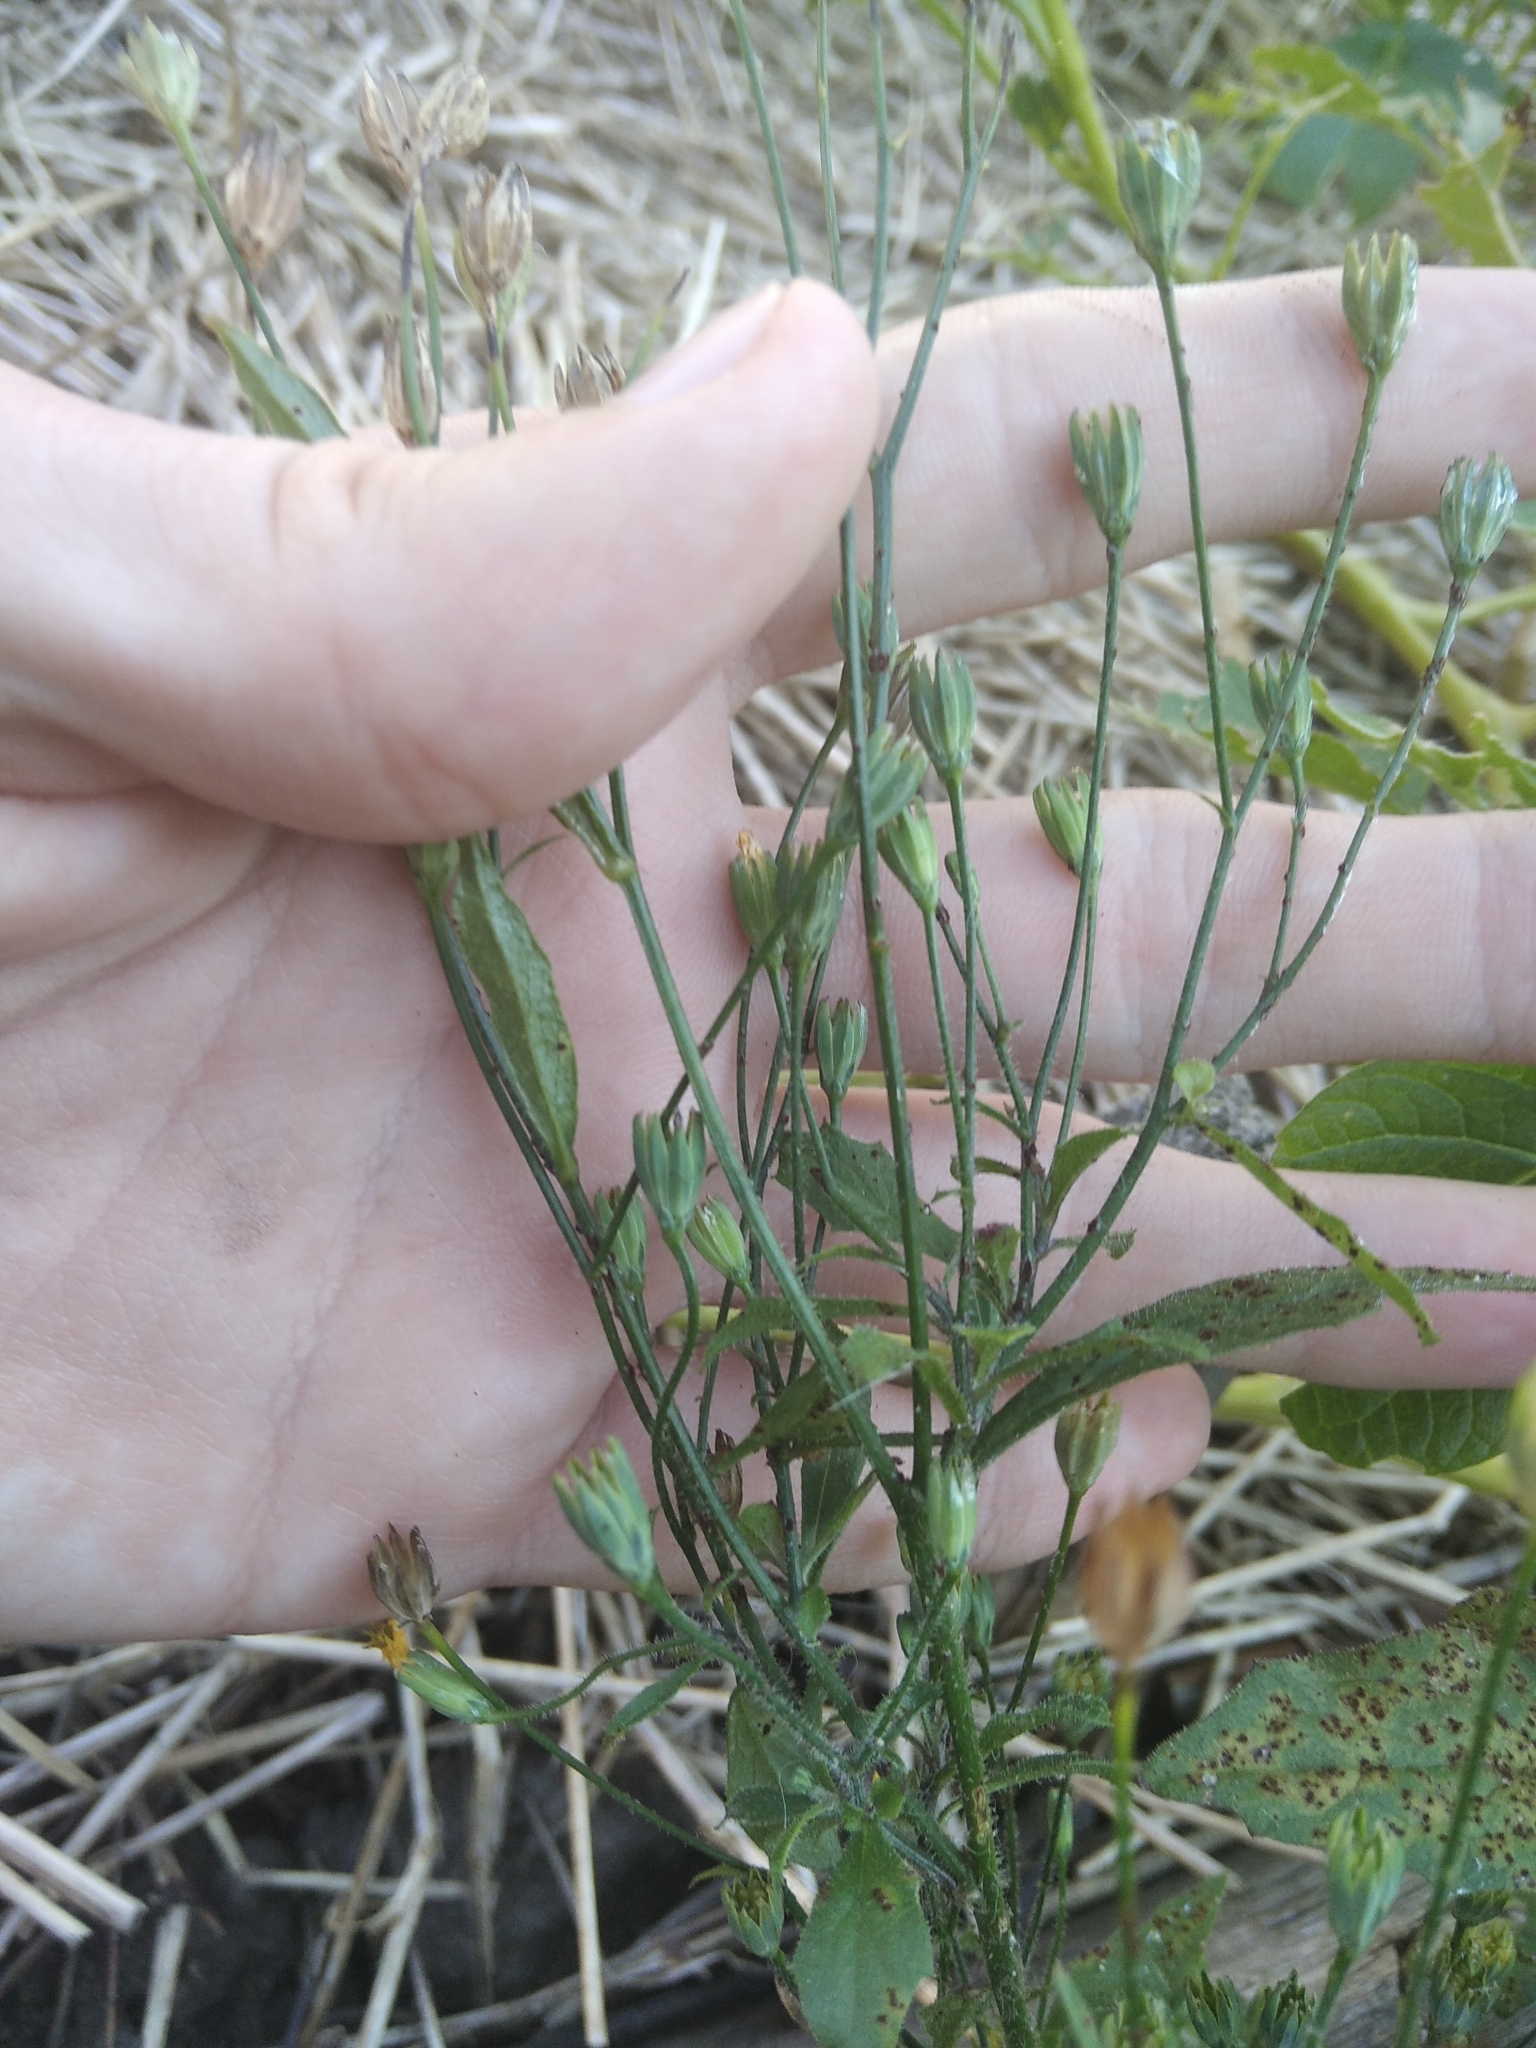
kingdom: Plantae
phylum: Tracheophyta
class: Magnoliopsida
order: Asterales
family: Asteraceae
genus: Lapsana
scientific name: Lapsana communis
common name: Nipplewort
